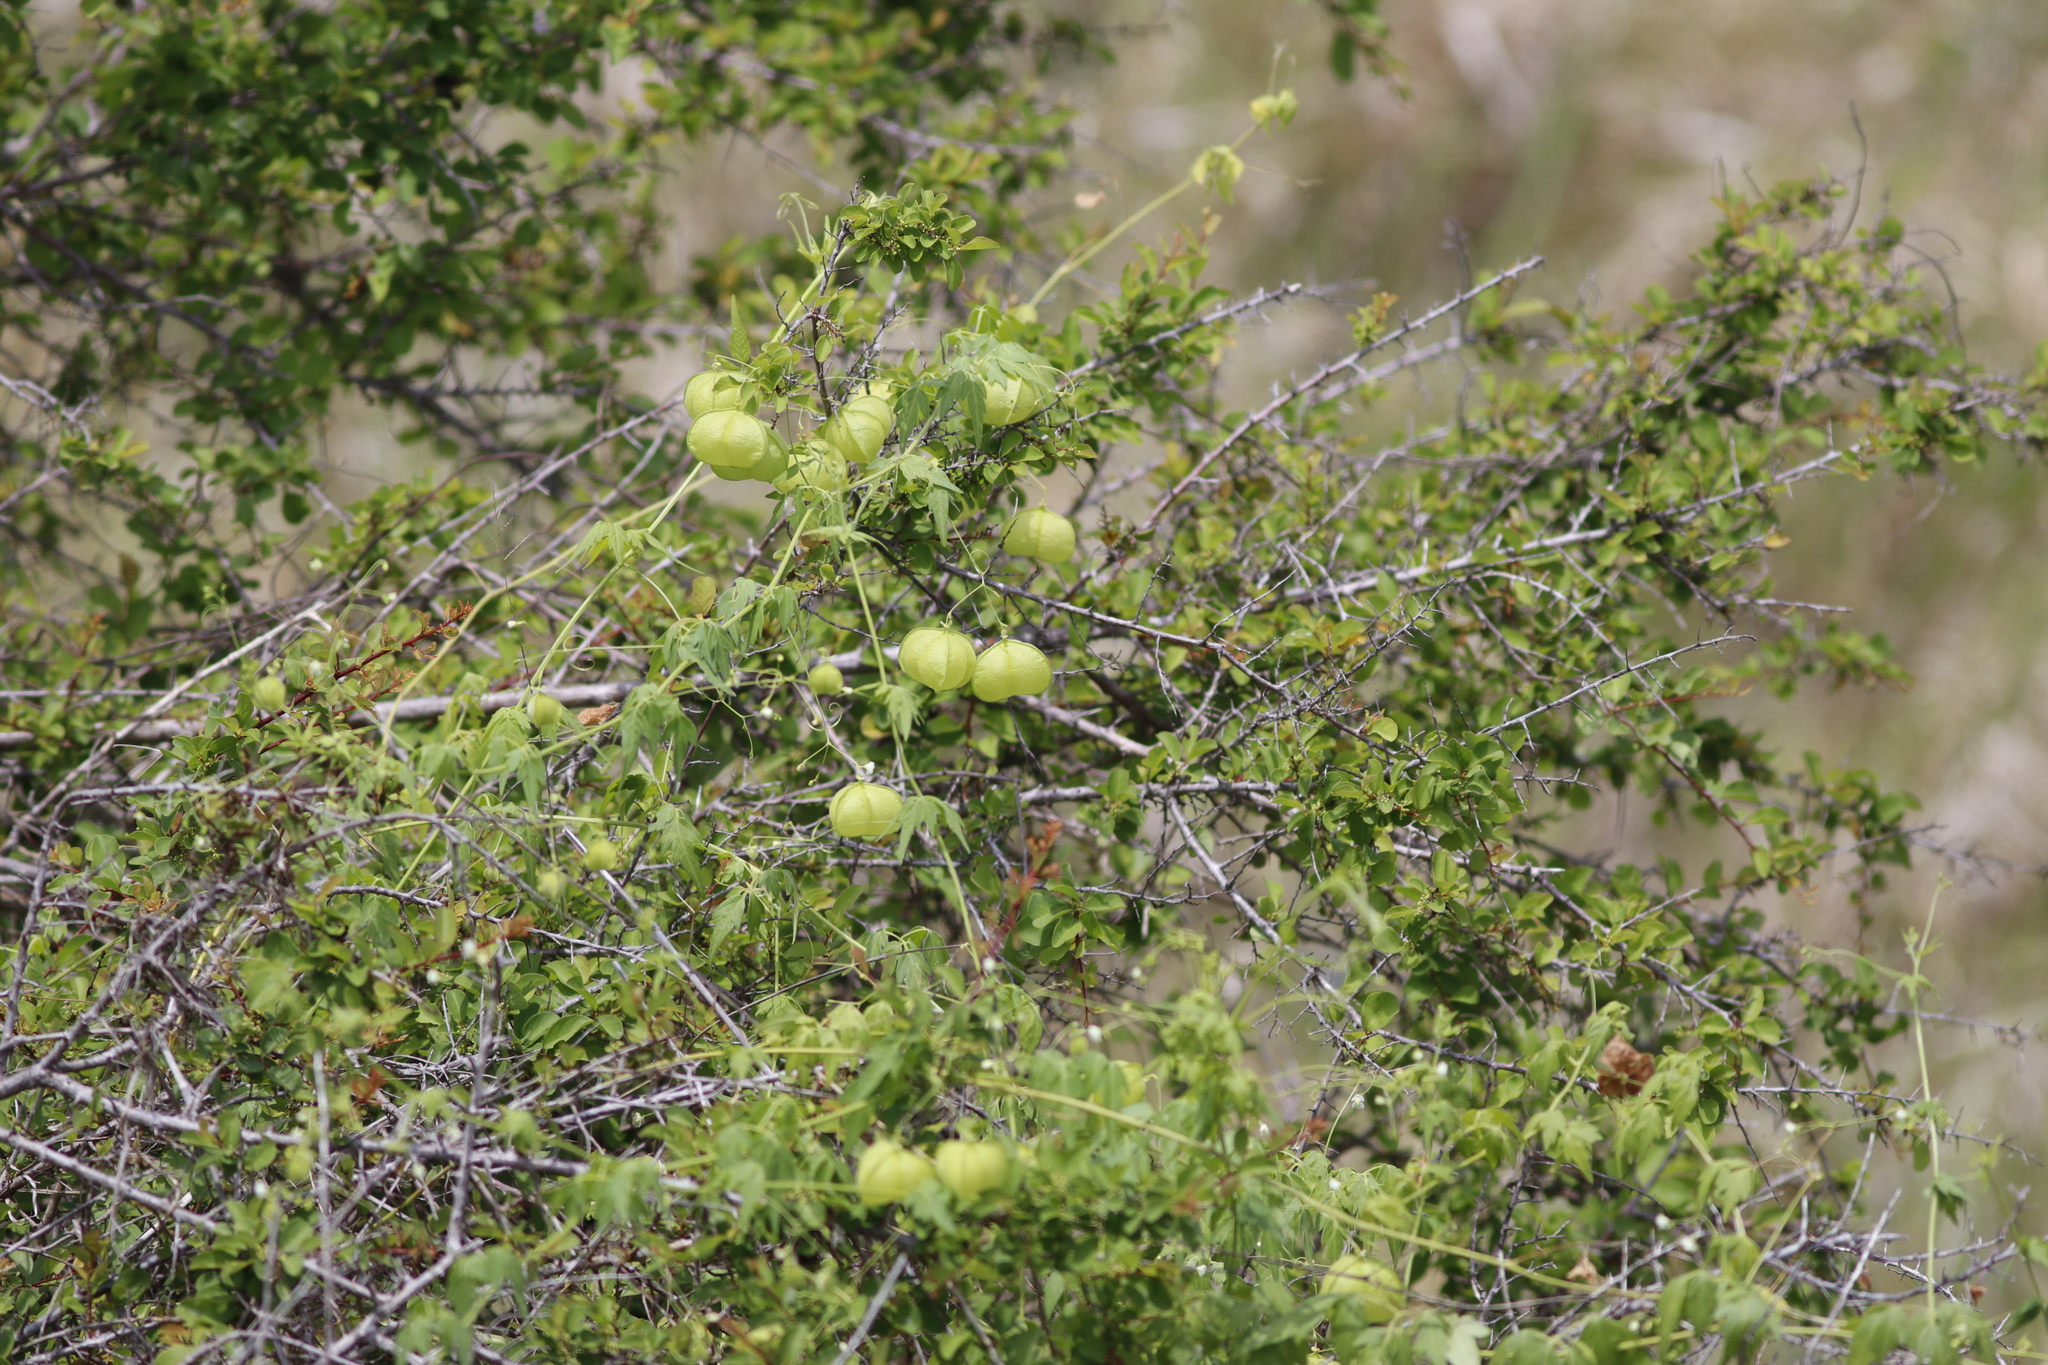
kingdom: Plantae
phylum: Tracheophyta
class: Magnoliopsida
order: Sapindales
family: Sapindaceae
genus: Cardiospermum
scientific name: Cardiospermum halicacabum
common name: Balloon vine
